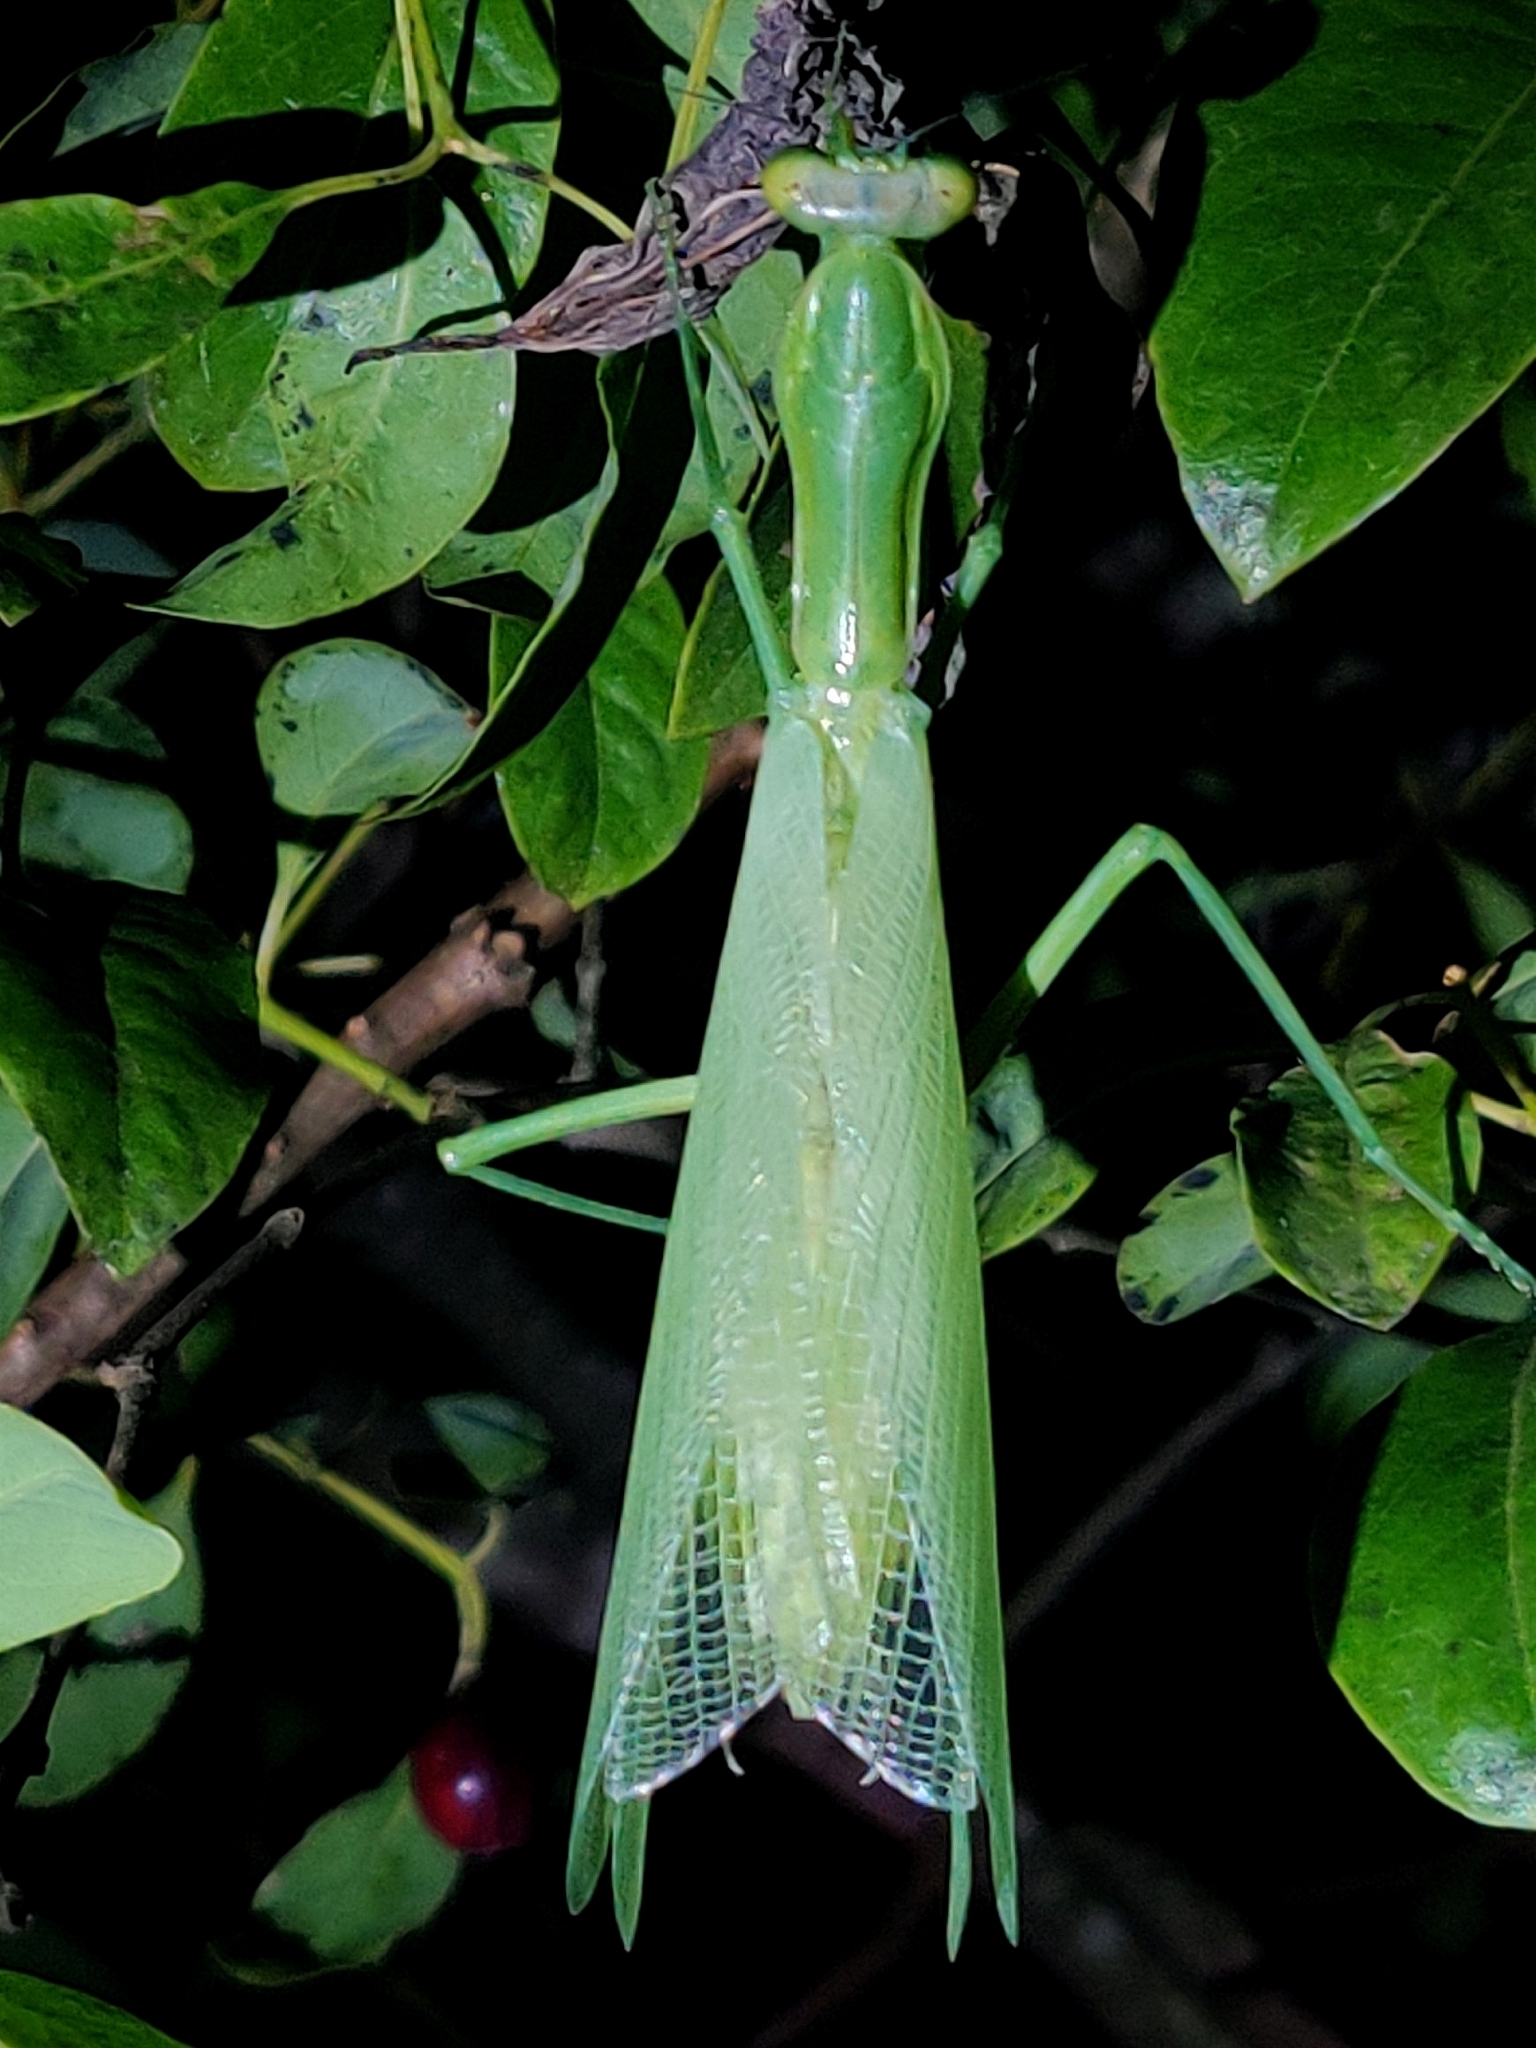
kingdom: Animalia
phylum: Arthropoda
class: Insecta
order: Mantodea
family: Mantidae
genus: Hierodula
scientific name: Hierodula tenuidentata
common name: Giant asian mantis
